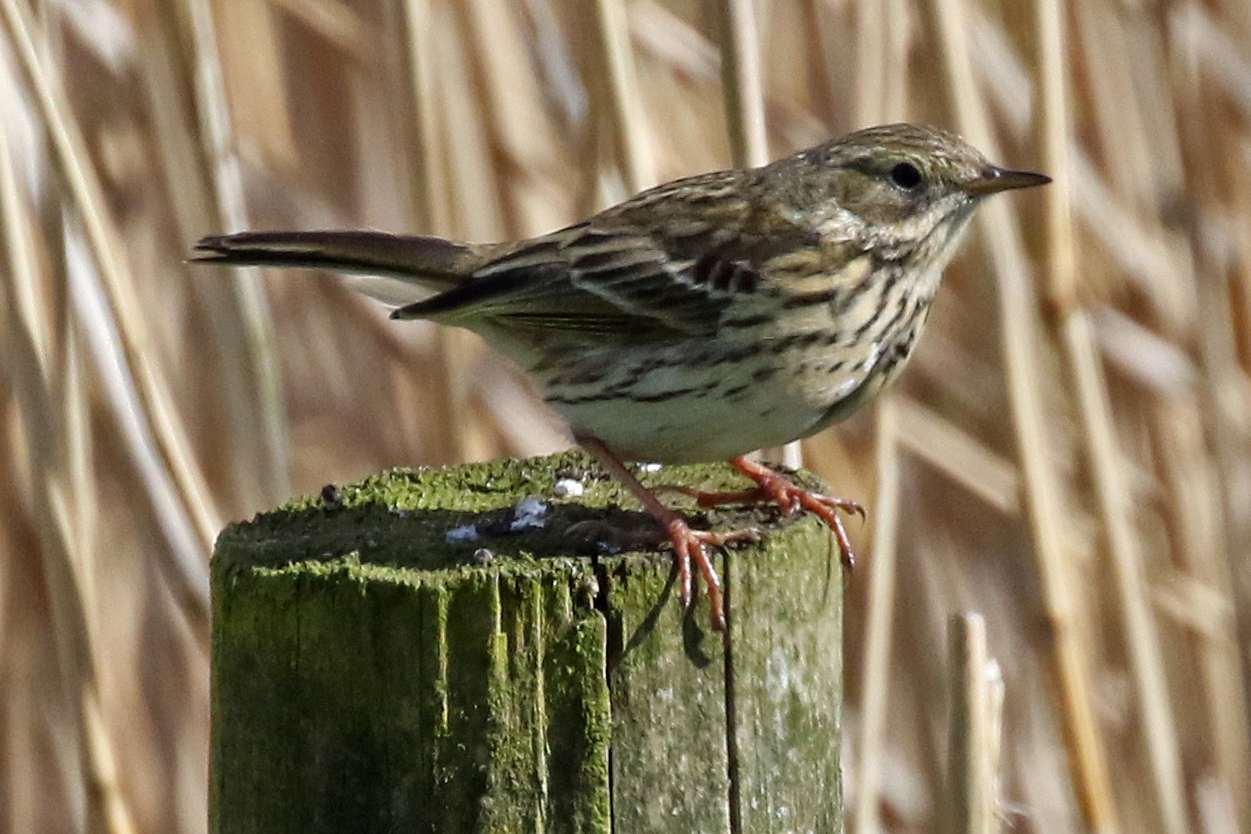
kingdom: Animalia
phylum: Chordata
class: Aves
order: Passeriformes
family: Motacillidae
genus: Anthus
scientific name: Anthus pratensis
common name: Meadow pipit
